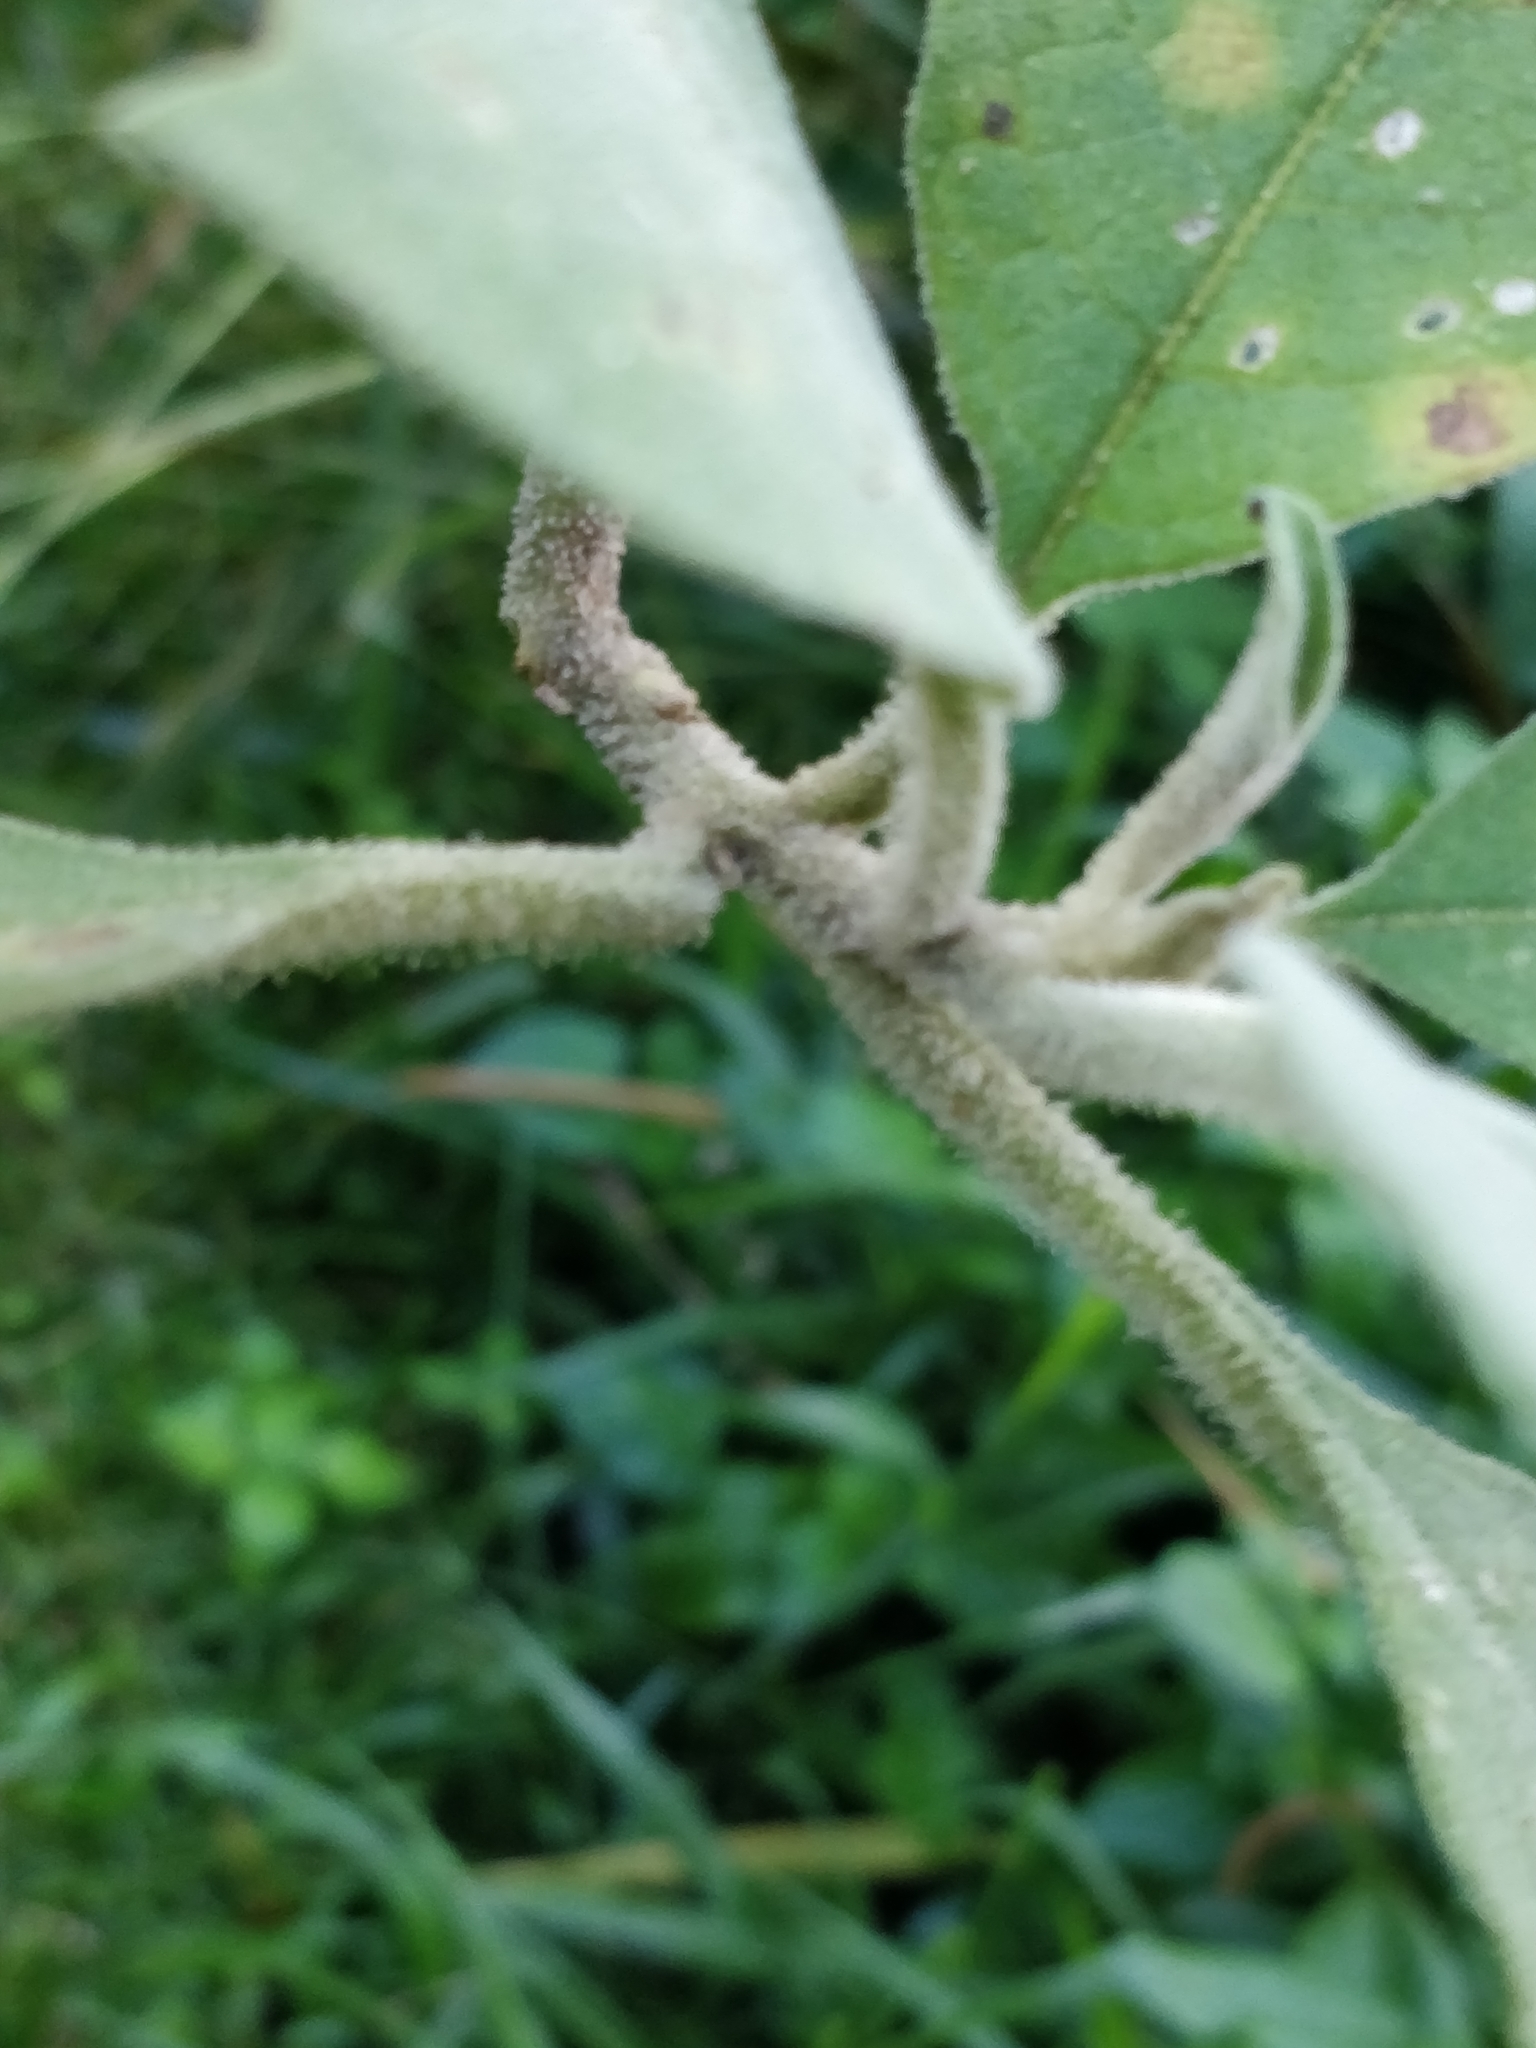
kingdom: Plantae
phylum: Tracheophyta
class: Magnoliopsida
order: Solanales
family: Solanaceae
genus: Solanum
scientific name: Solanum mauritianum
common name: Earleaf nightshade
